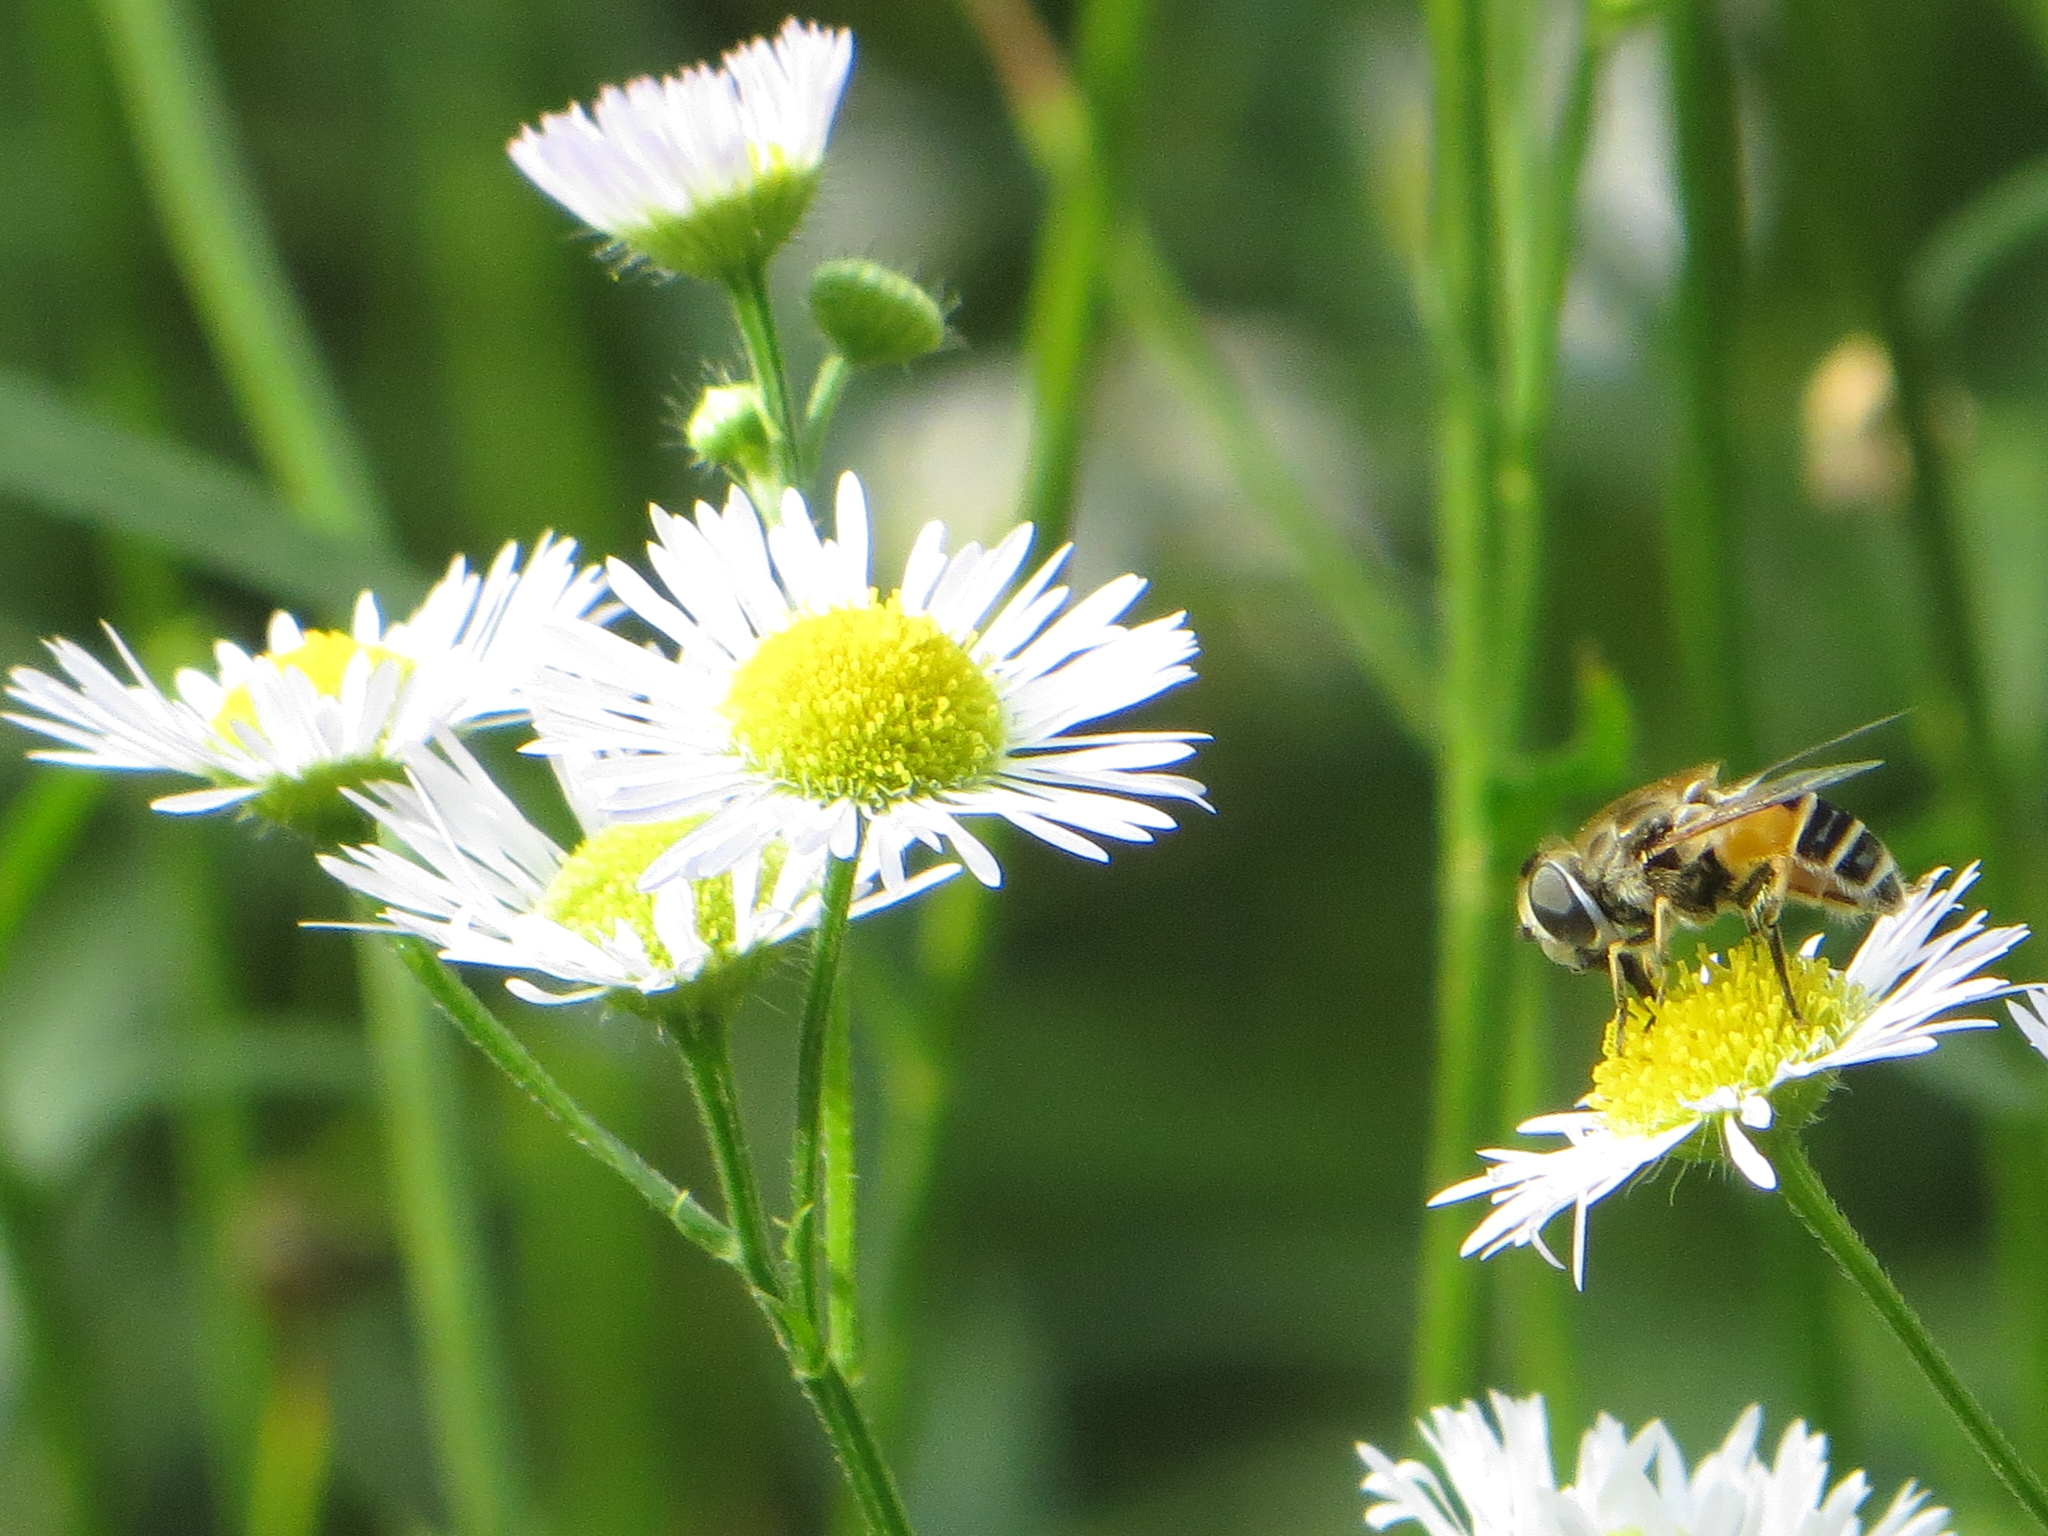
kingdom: Animalia
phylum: Arthropoda
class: Insecta
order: Diptera
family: Syrphidae
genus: Eristalis
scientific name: Eristalis arbustorum
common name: Hover fly
